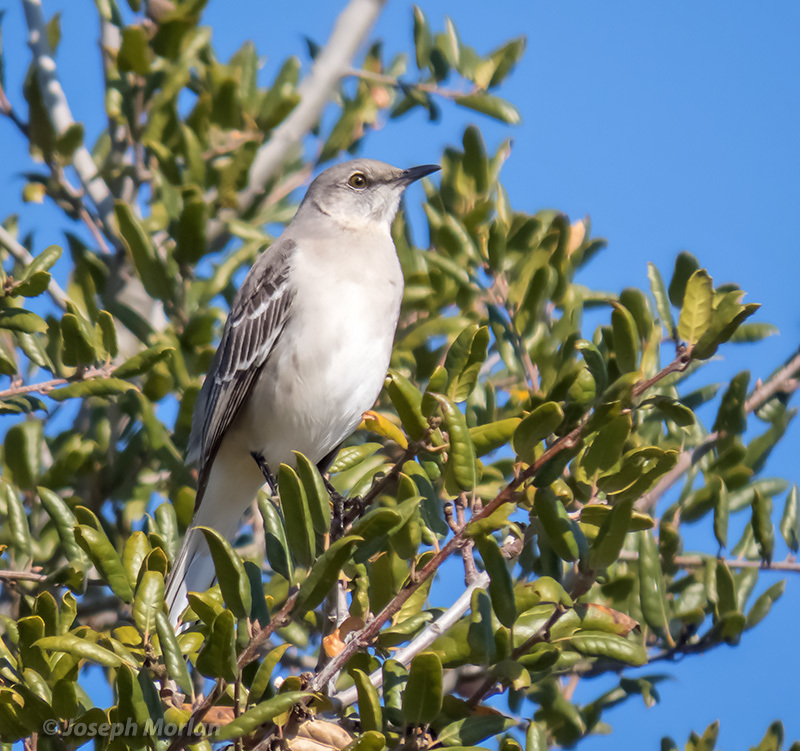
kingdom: Animalia
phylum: Chordata
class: Aves
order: Passeriformes
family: Mimidae
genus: Mimus
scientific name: Mimus polyglottos
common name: Northern mockingbird
